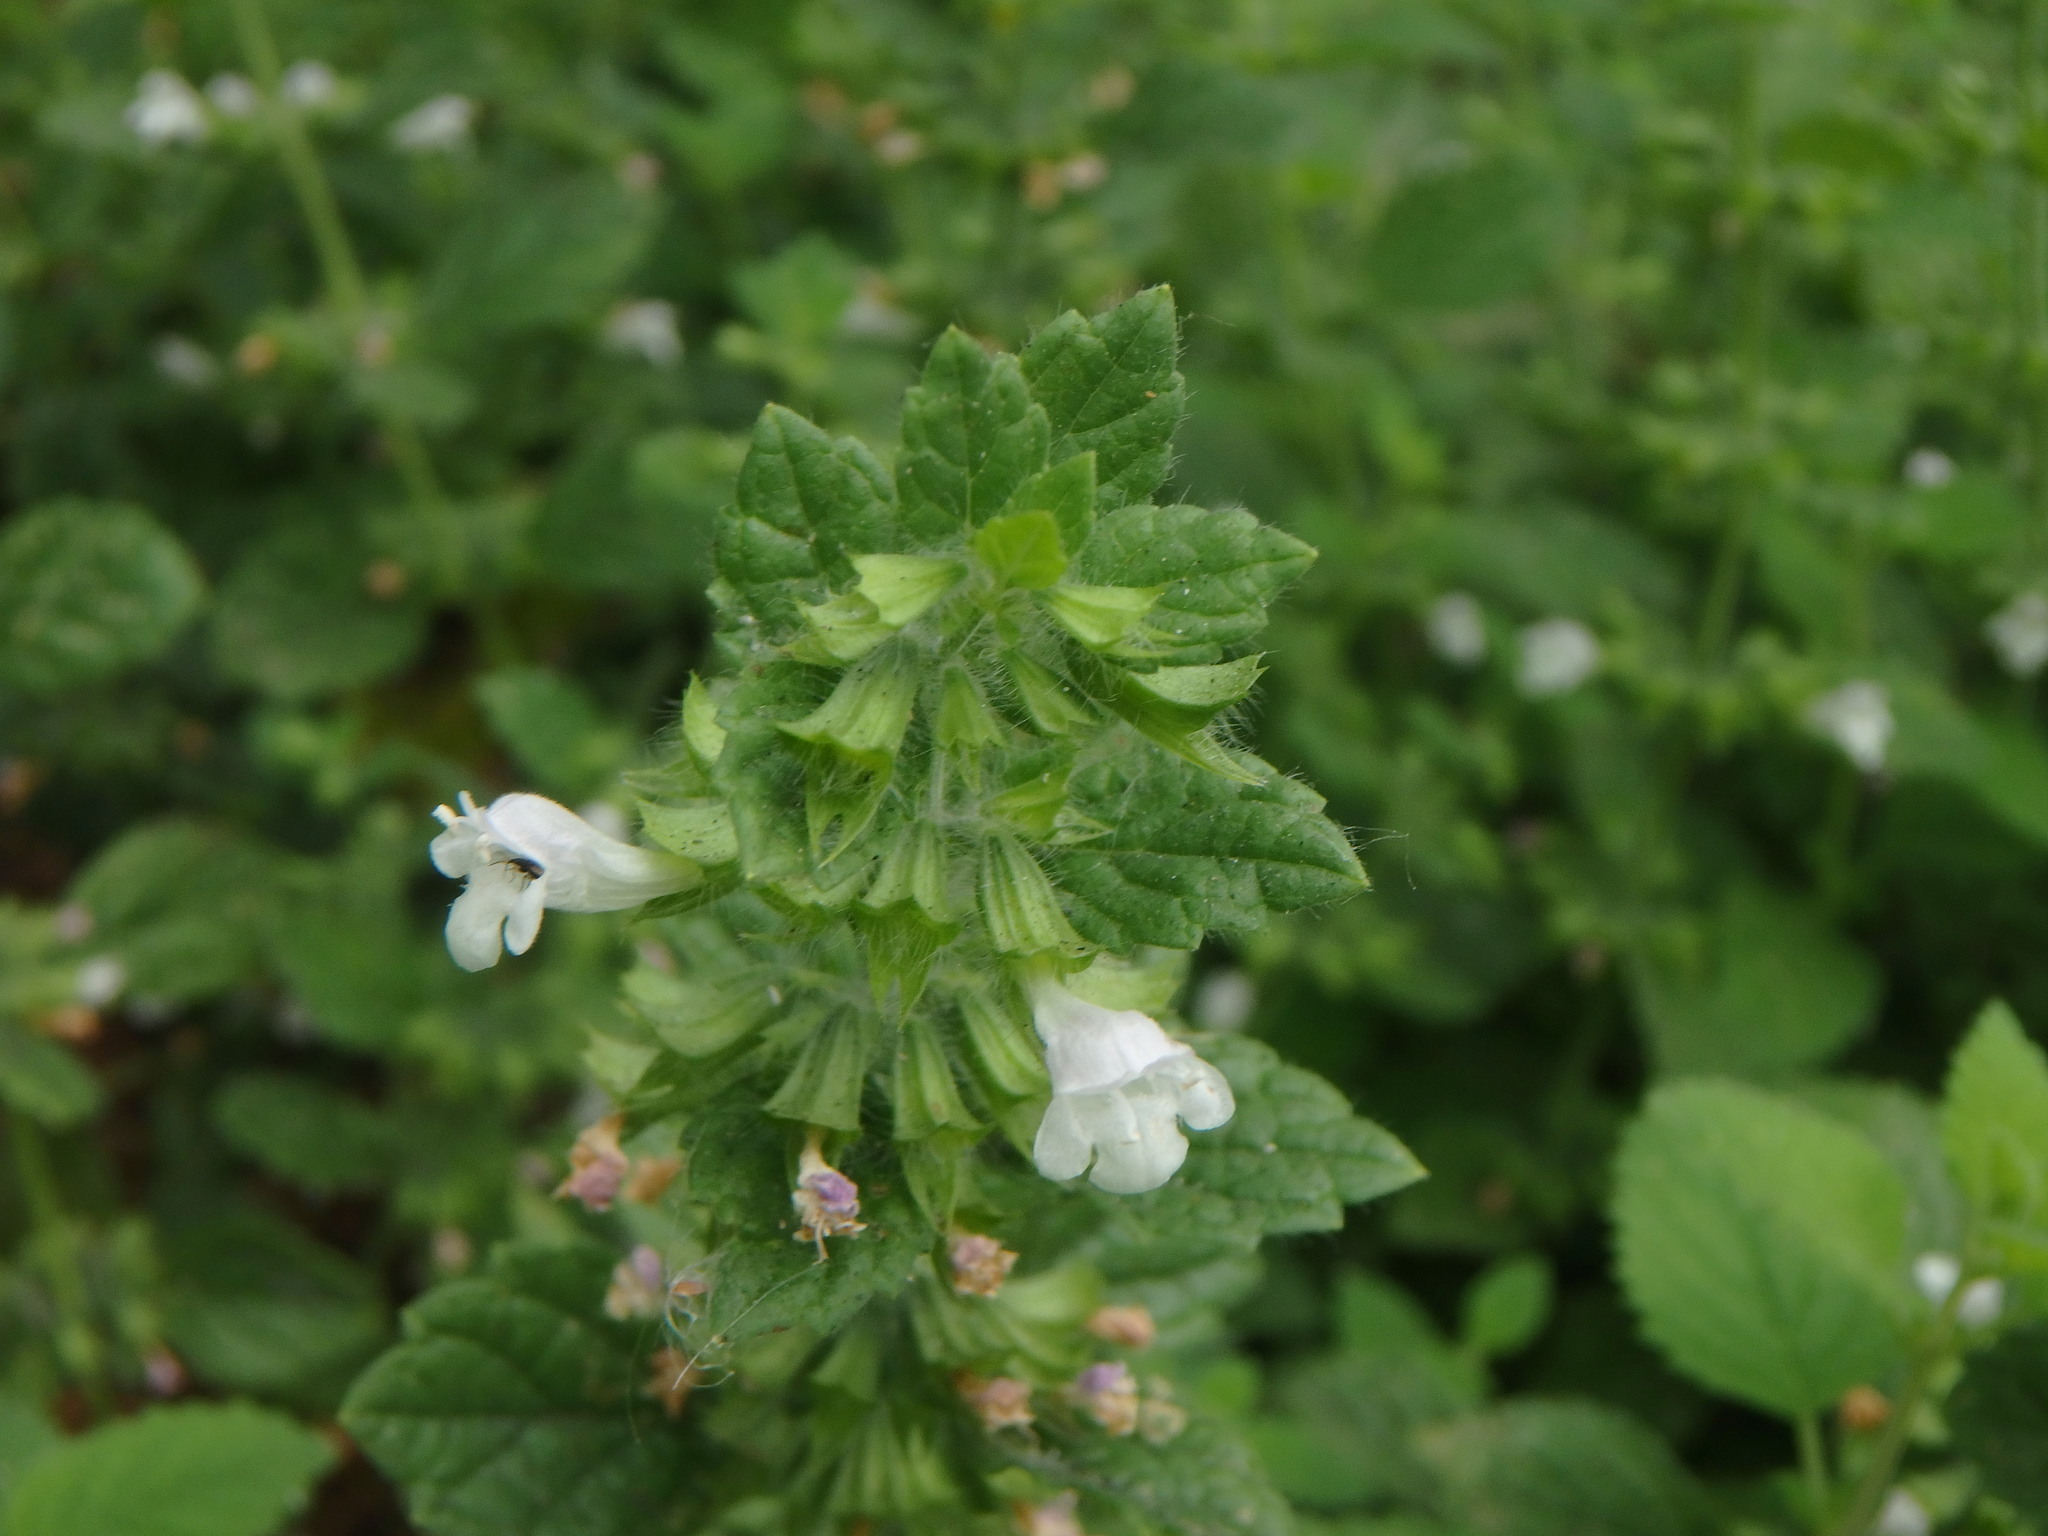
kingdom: Plantae
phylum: Tracheophyta
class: Magnoliopsida
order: Lamiales
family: Lamiaceae
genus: Melissa
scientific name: Melissa officinalis
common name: Balm
